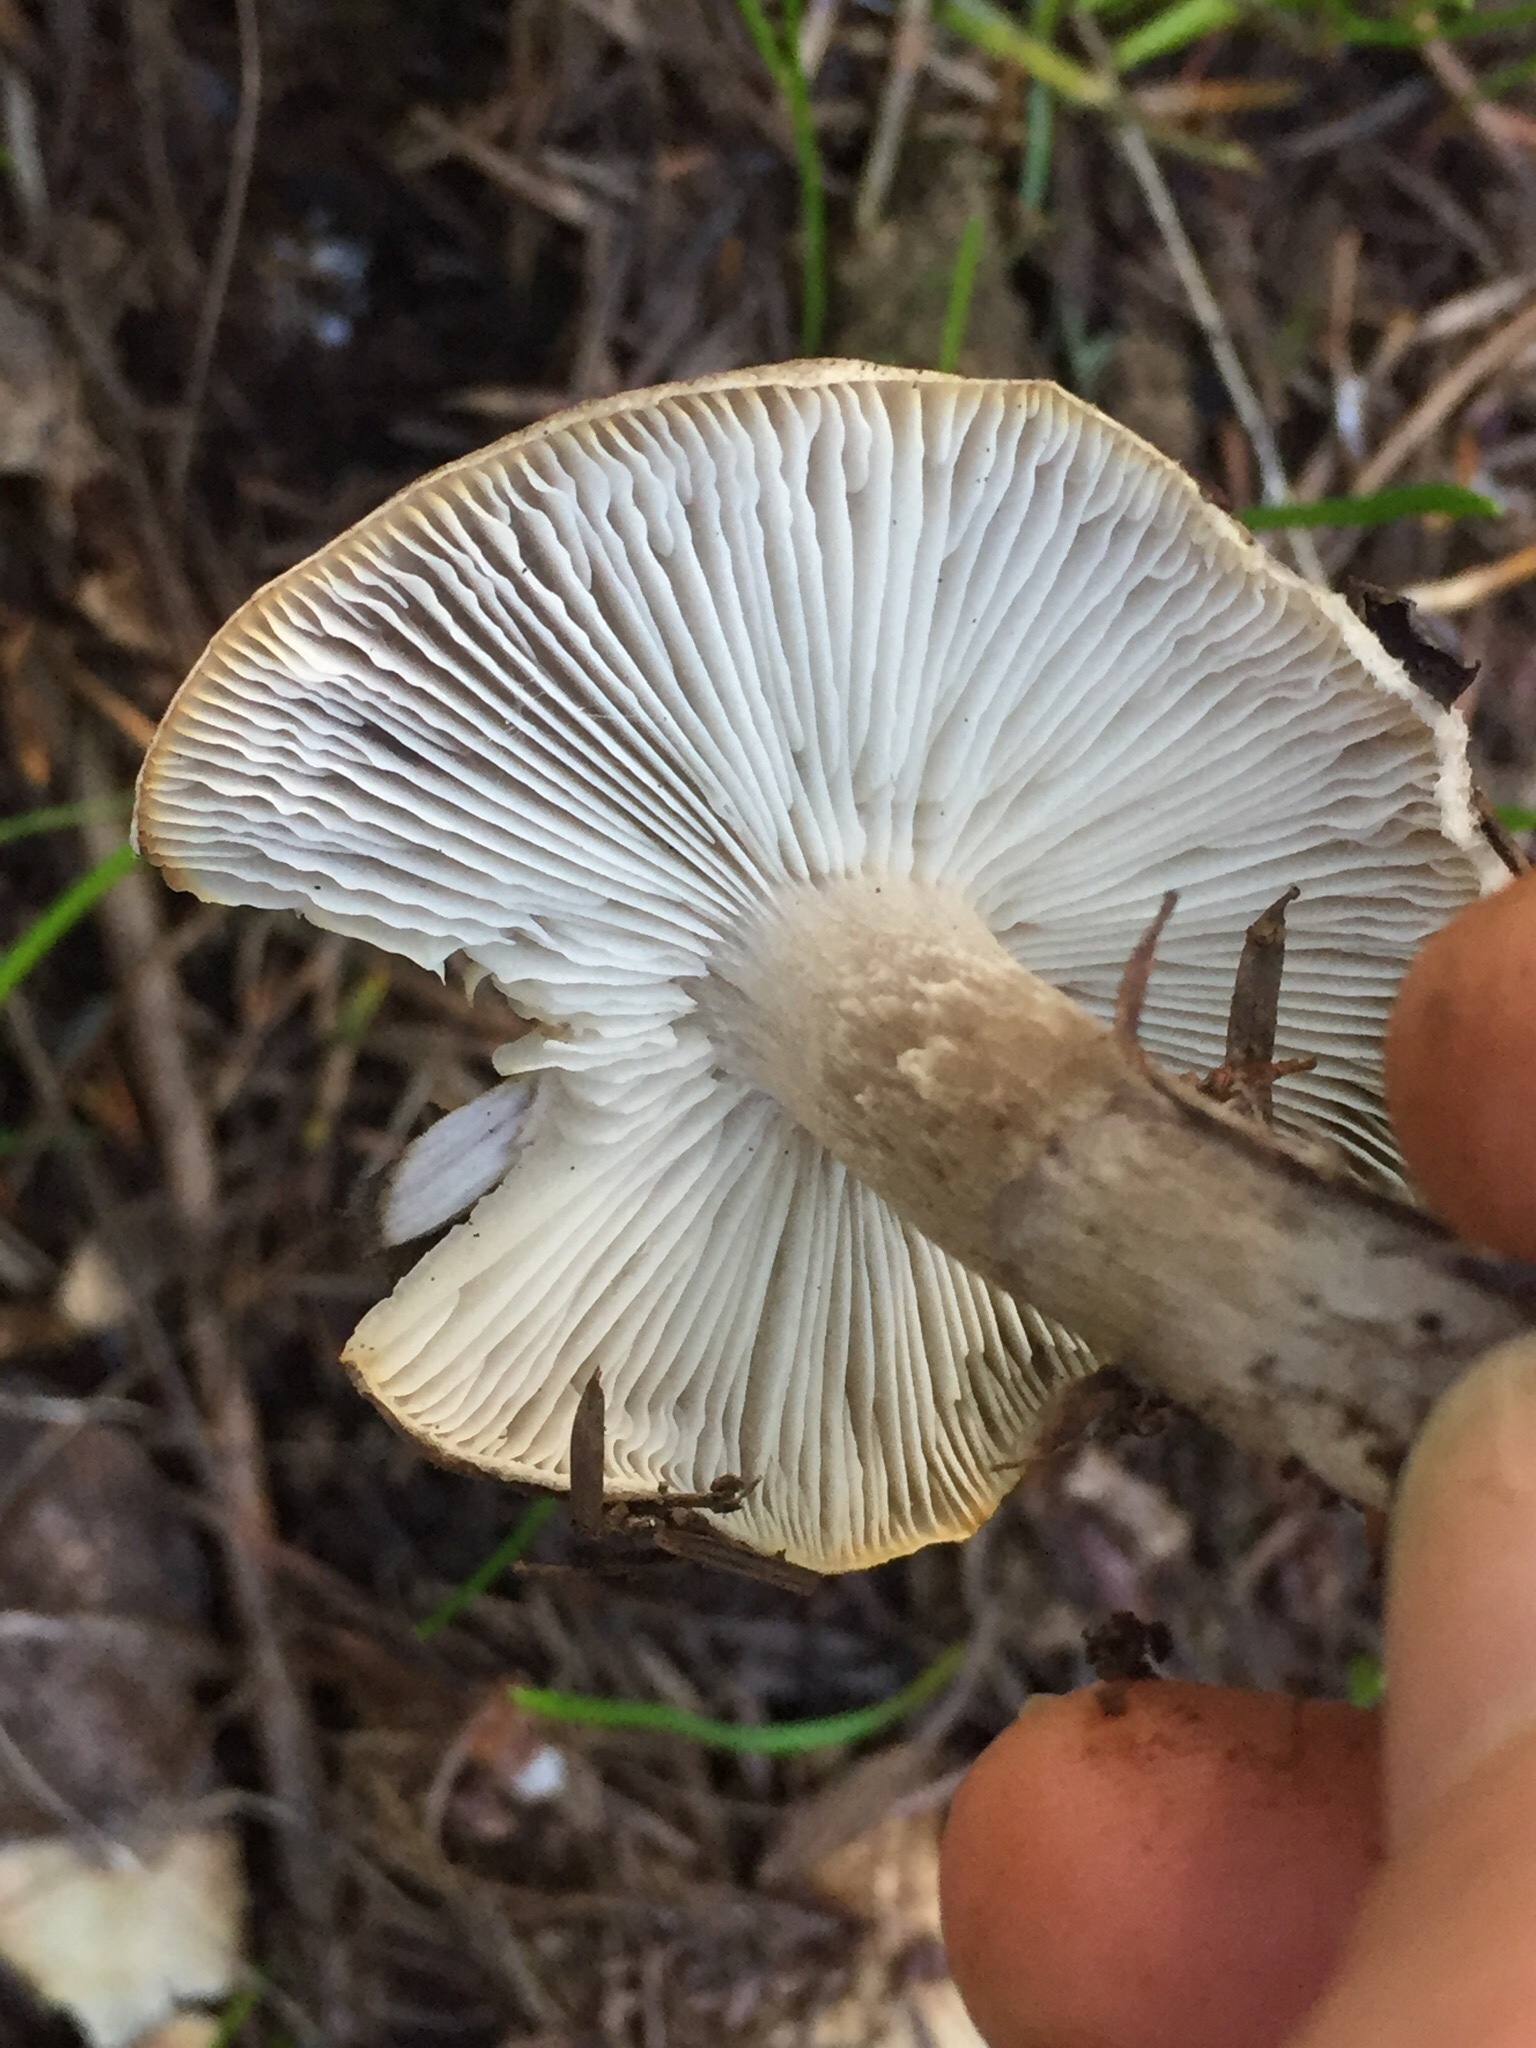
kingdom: Fungi
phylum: Basidiomycota
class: Agaricomycetes
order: Agaricales
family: Tricholomataceae
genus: Tricholoma
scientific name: Tricholoma terreum
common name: Grey knight
